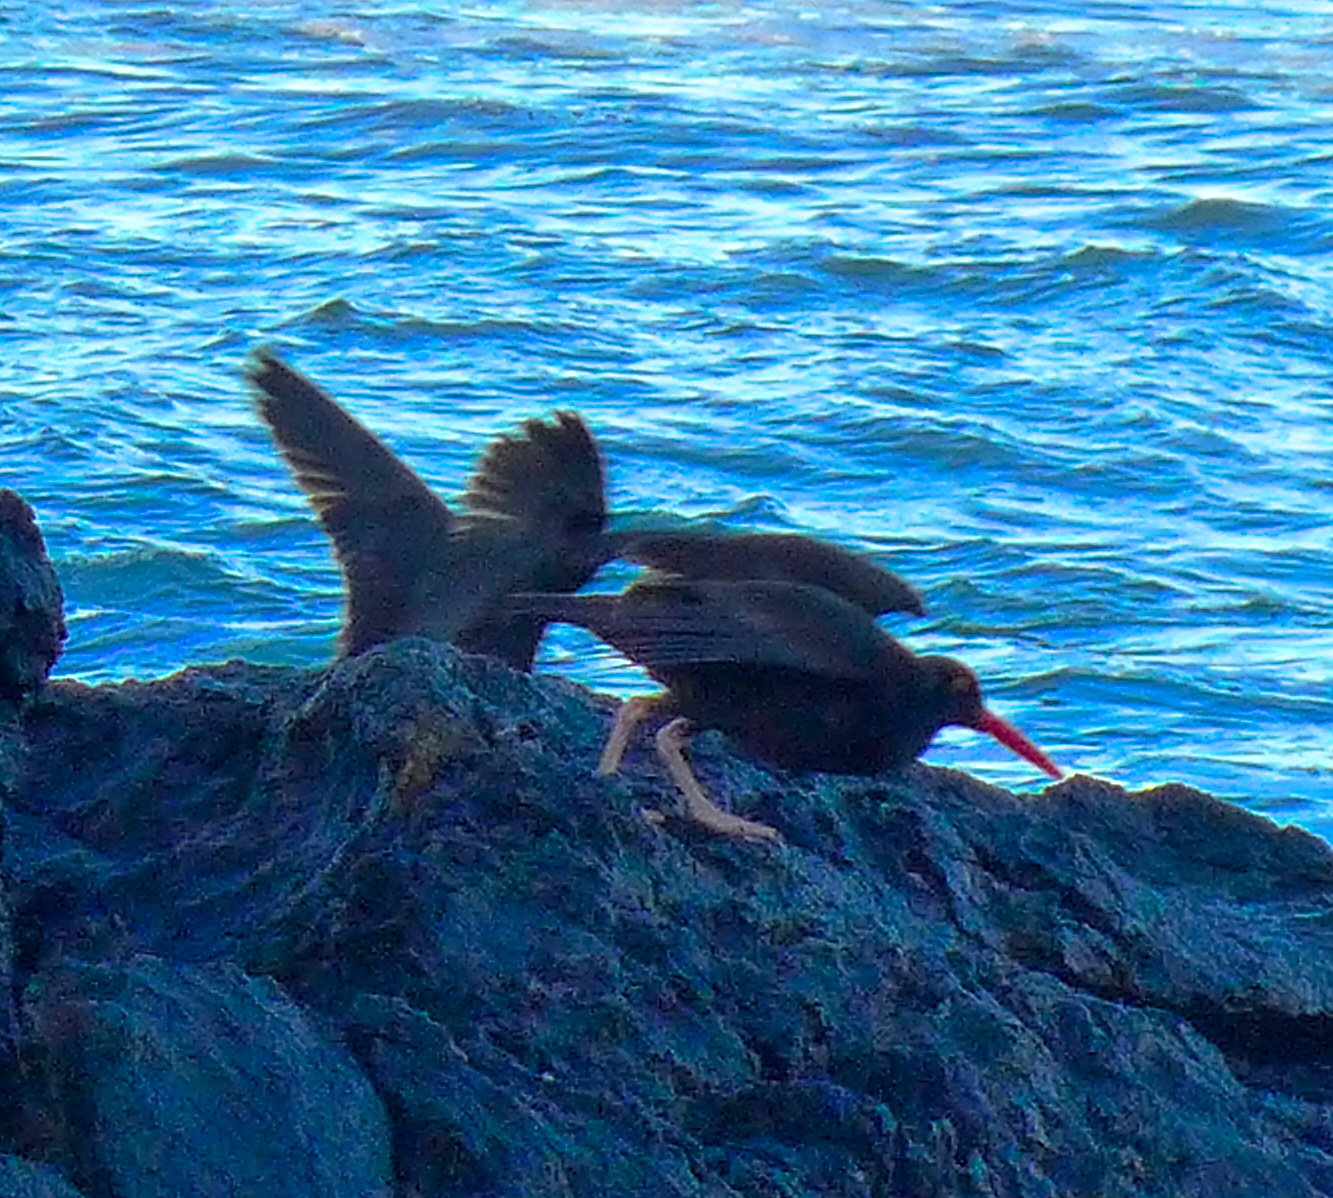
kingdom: Animalia
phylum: Chordata
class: Aves
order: Charadriiformes
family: Haematopodidae
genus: Haematopus
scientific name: Haematopus bachmani
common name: Black oystercatcher
